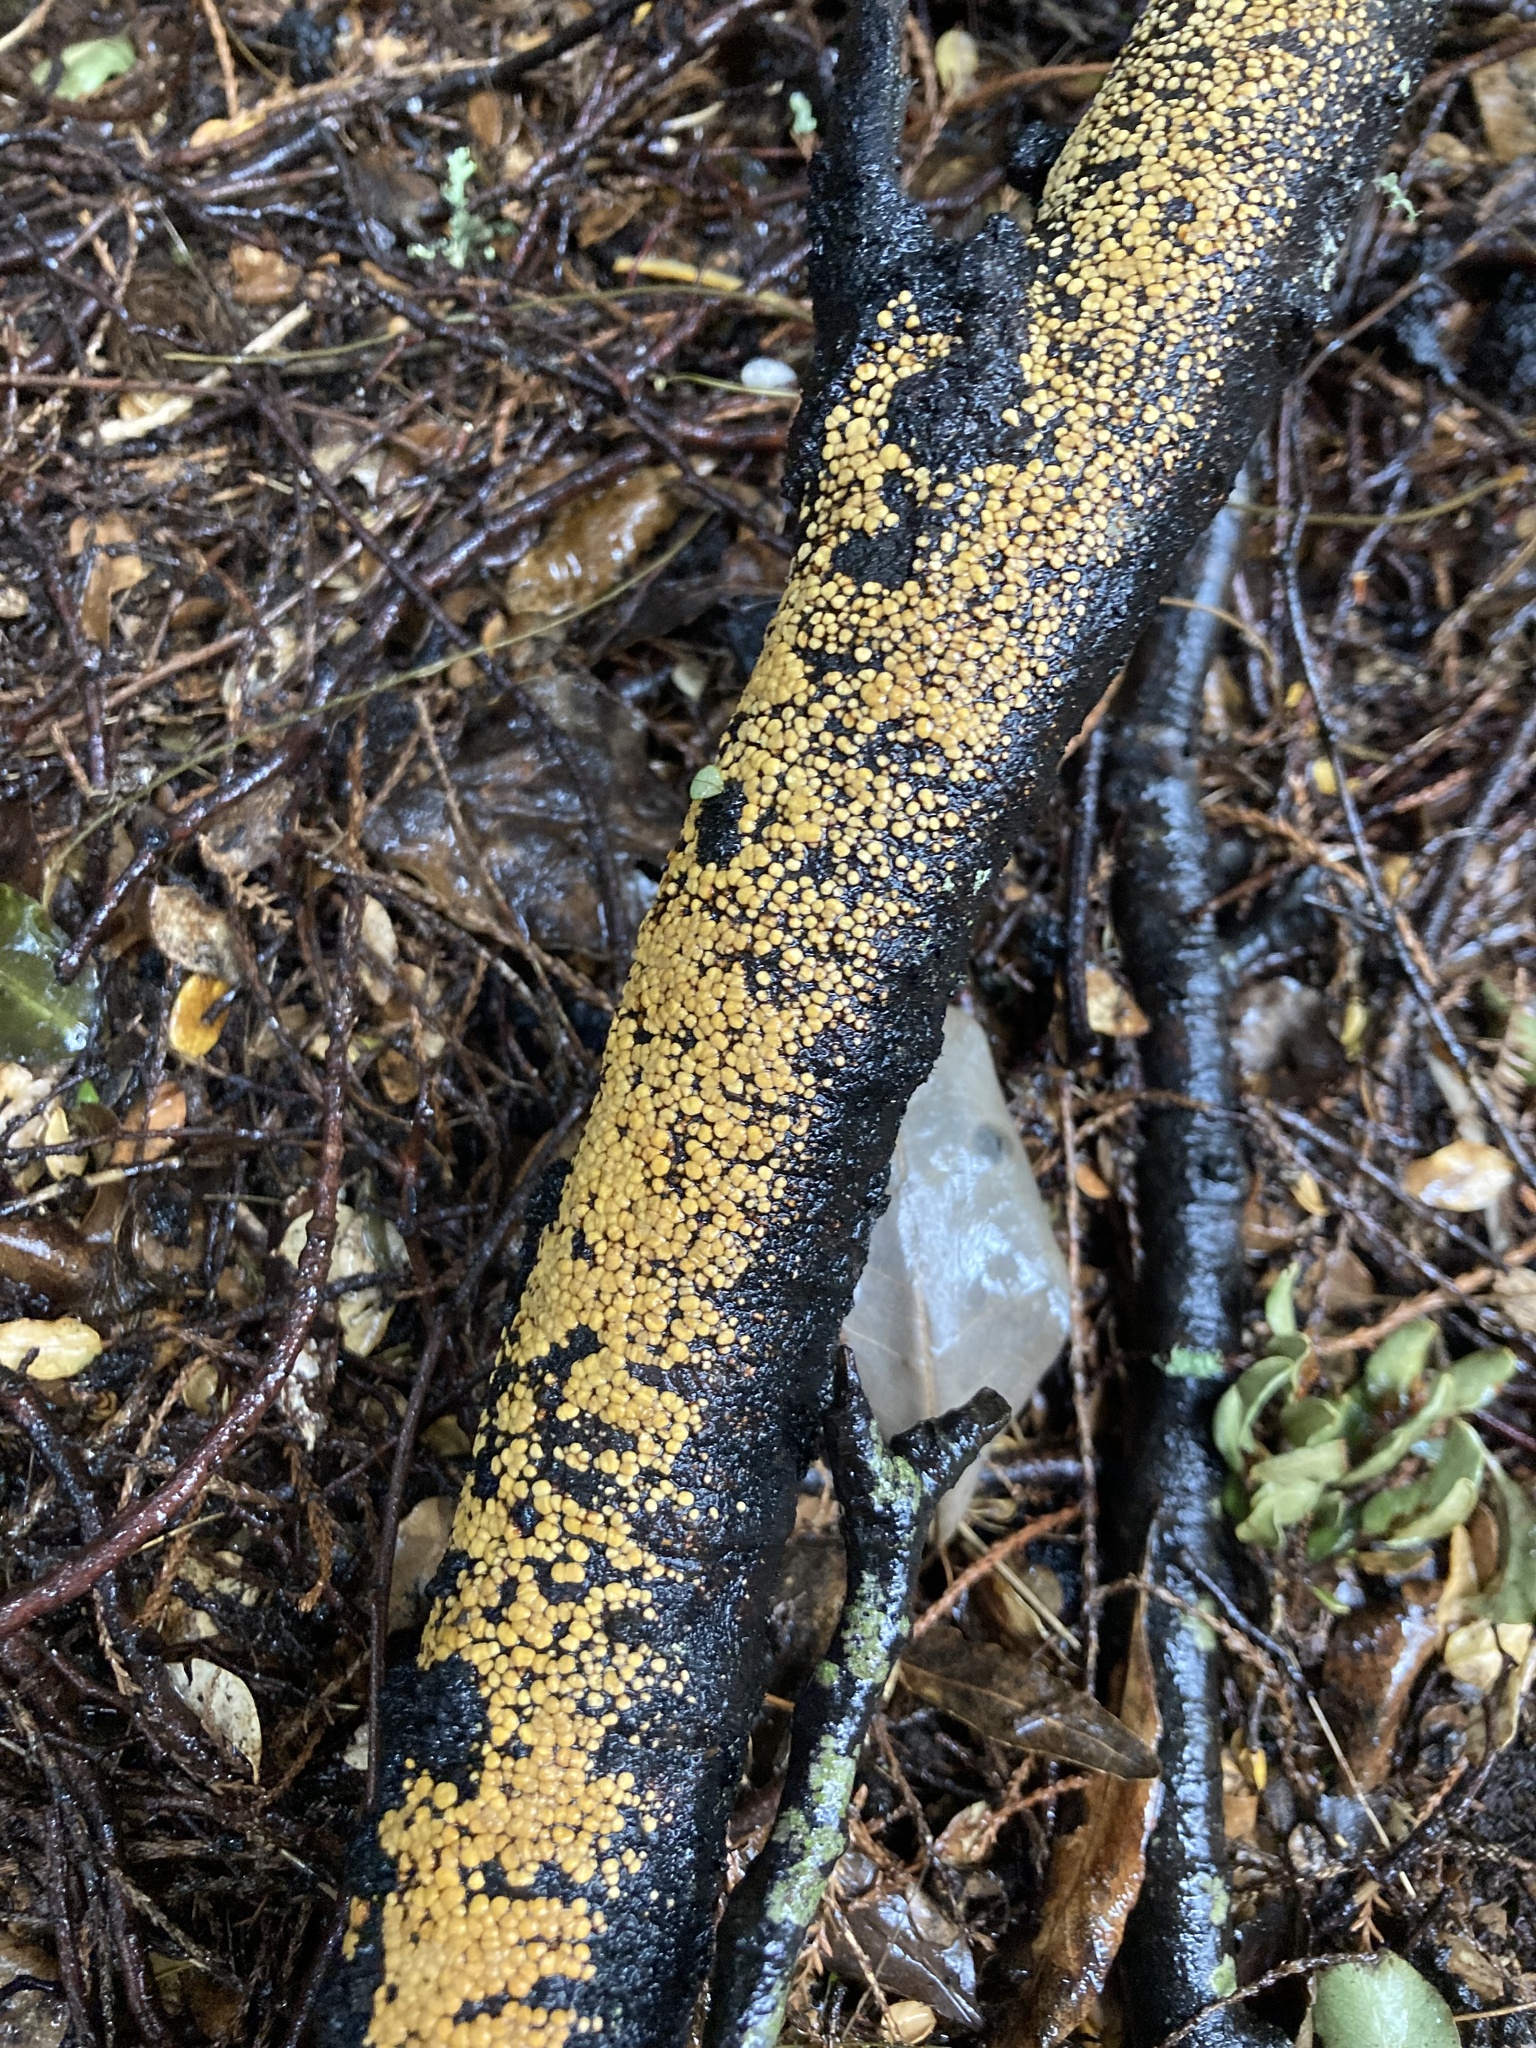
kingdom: Fungi
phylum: Basidiomycota
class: Agaricomycetes
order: Russulales
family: Stereaceae
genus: Aleurodiscus
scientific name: Aleurodiscus berggrenii
